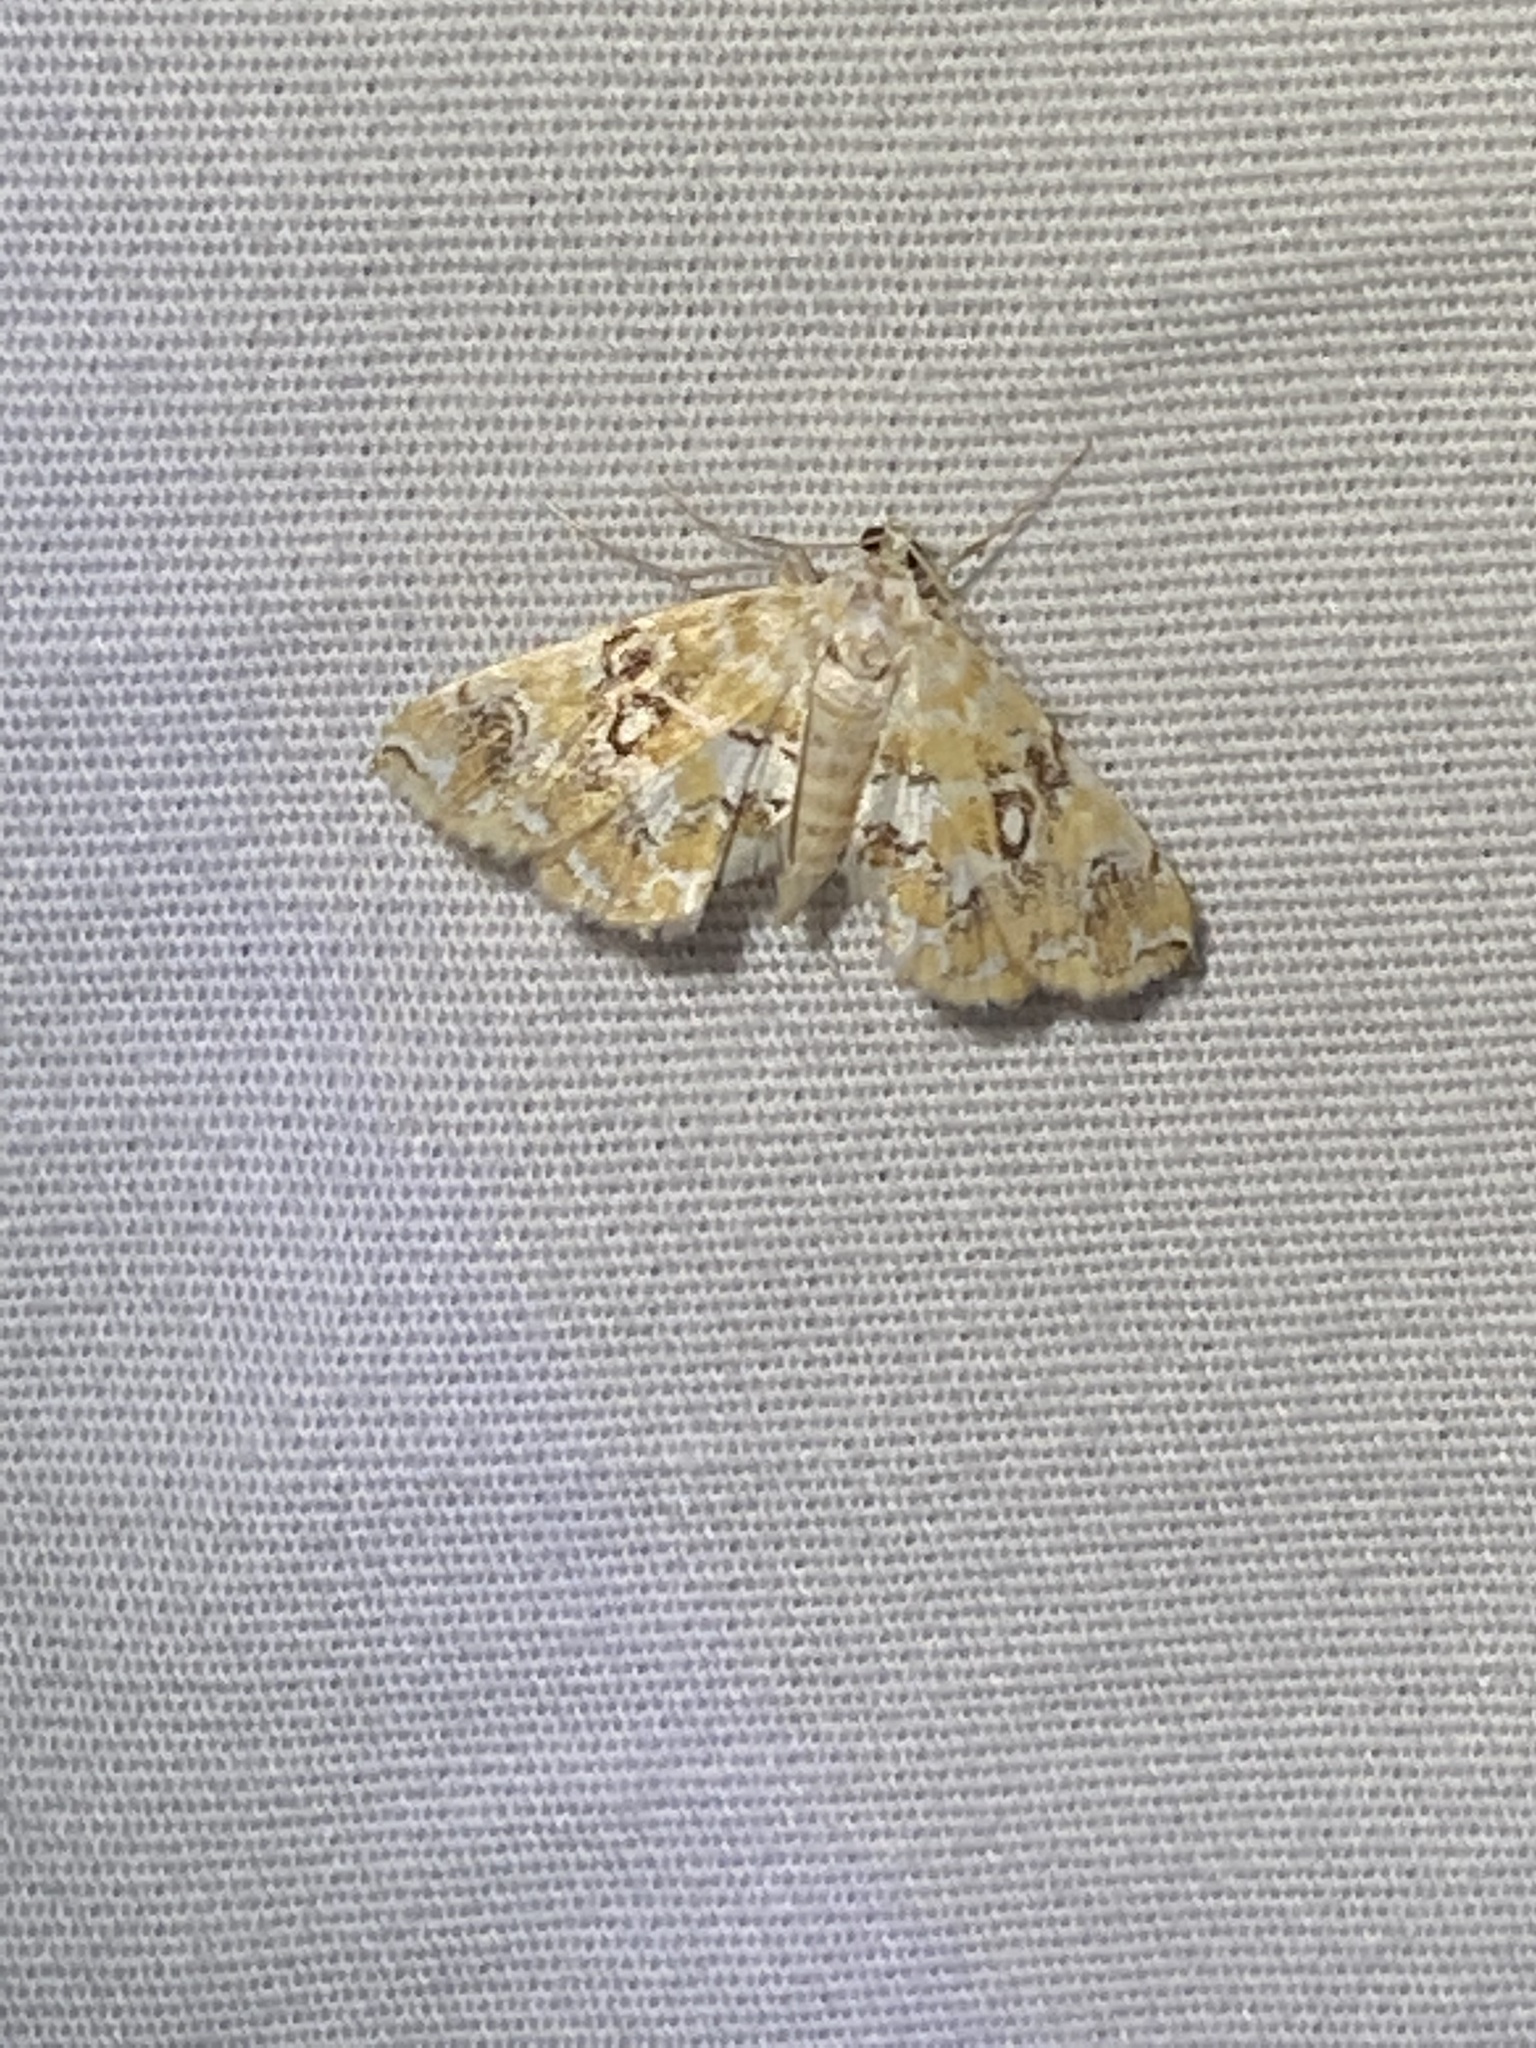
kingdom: Animalia
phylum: Arthropoda
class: Insecta
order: Lepidoptera
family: Crambidae
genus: Elophila
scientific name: Elophila icciusalis
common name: Pondside pyralid moth
